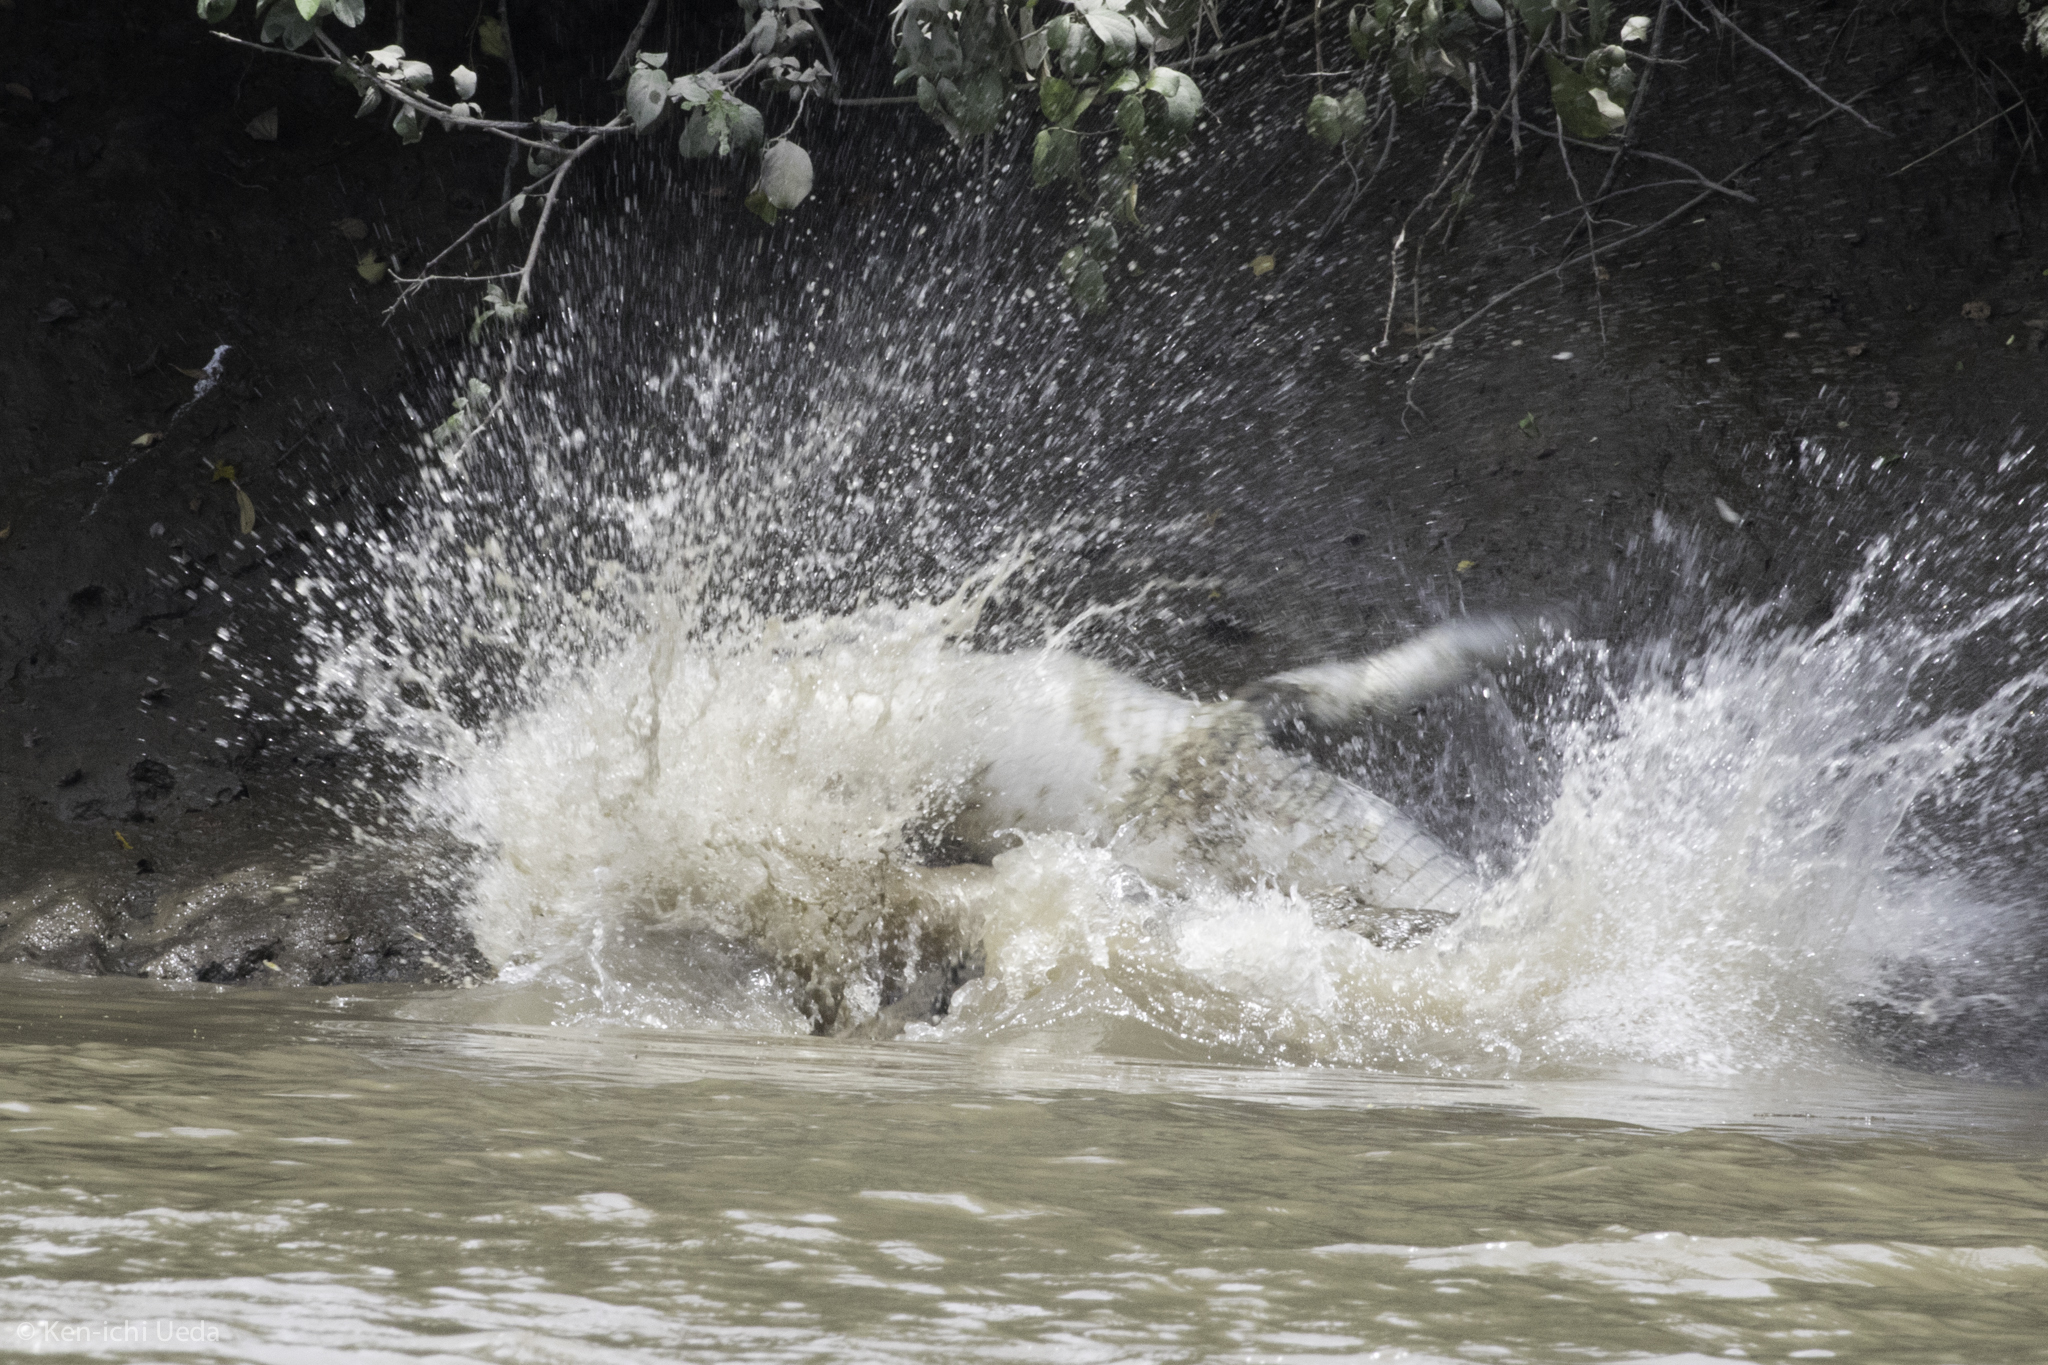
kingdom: Animalia
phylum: Chordata
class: Crocodylia
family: Crocodylidae
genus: Crocodylus
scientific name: Crocodylus acutus
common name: American crocodile
